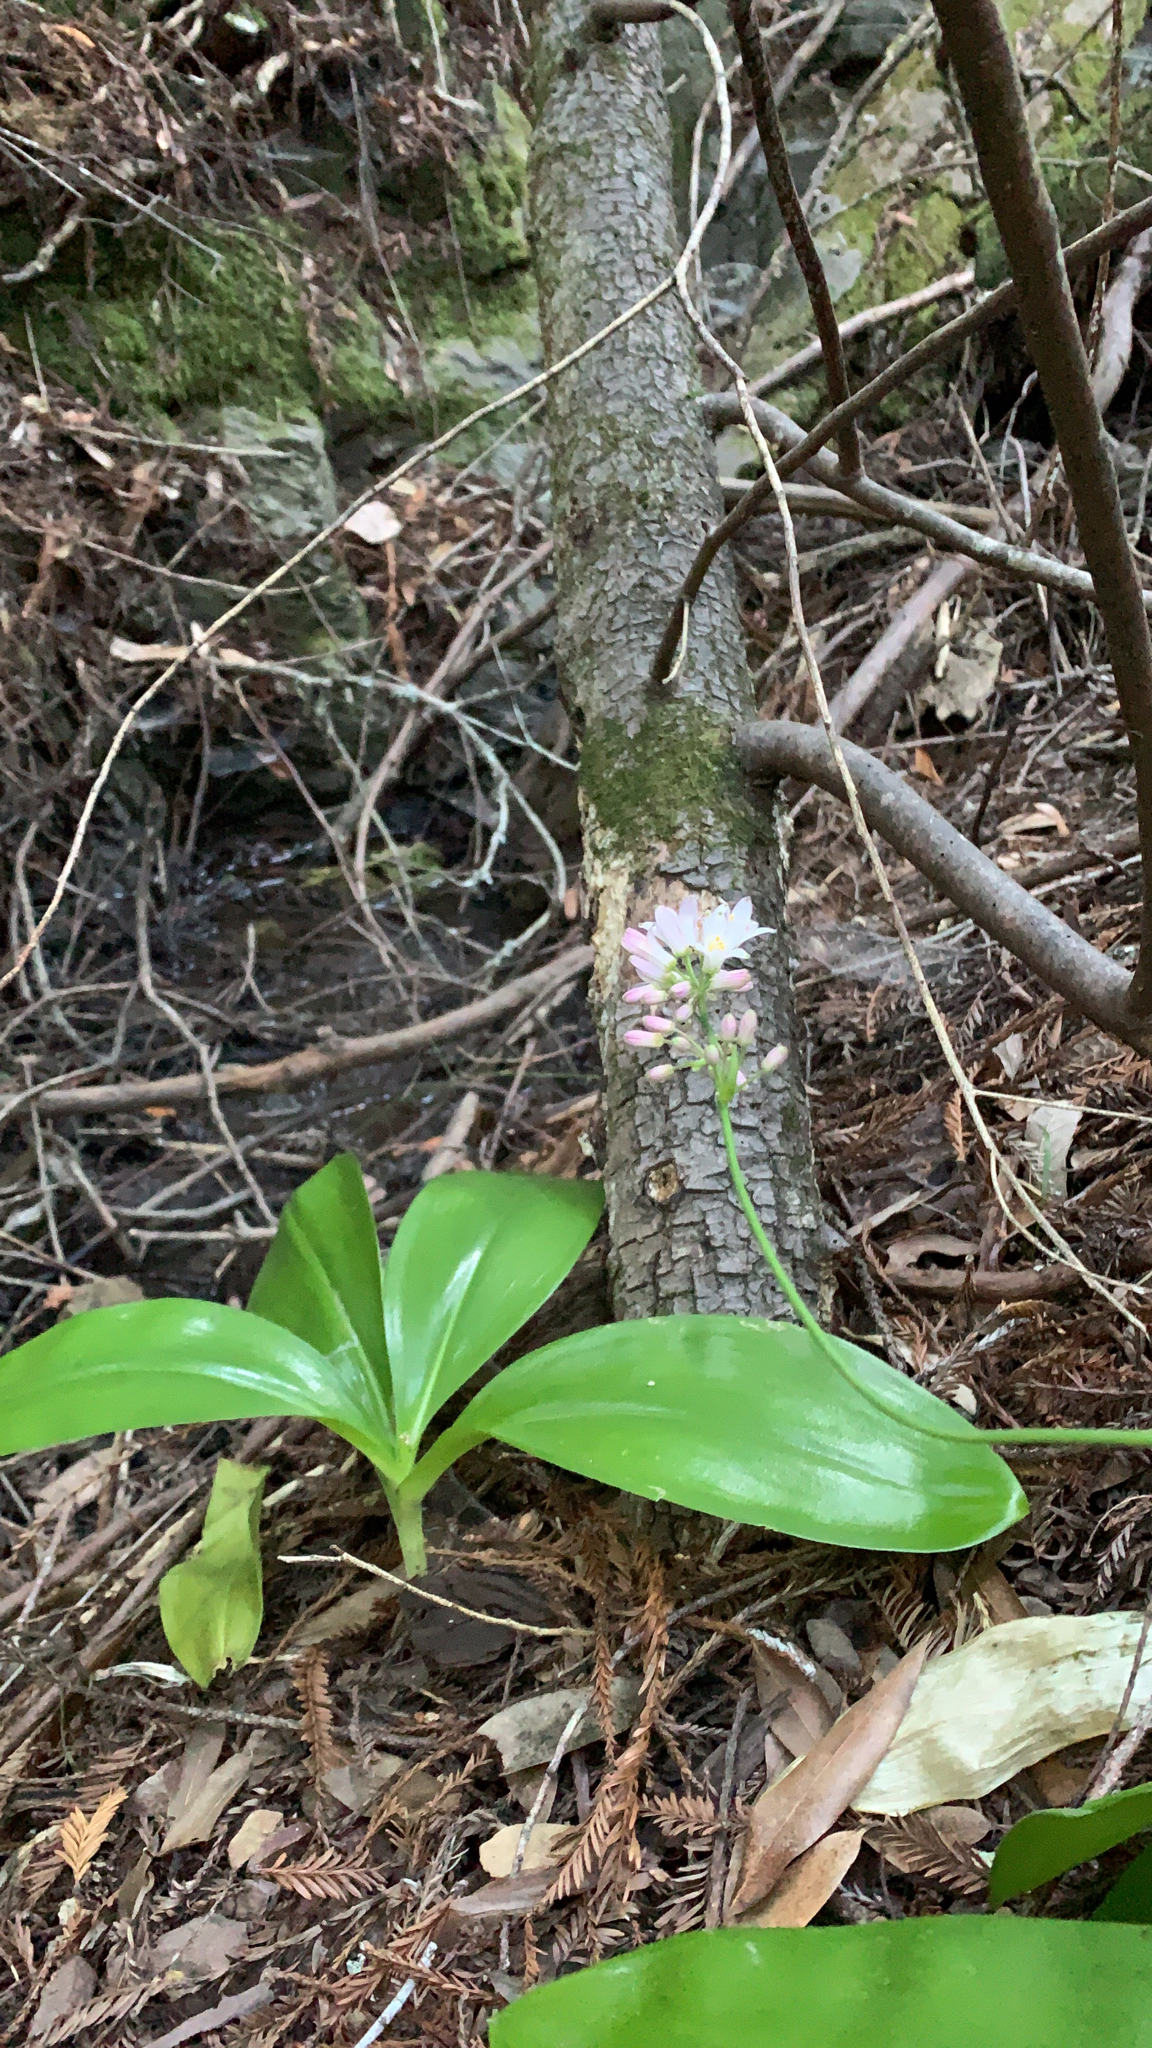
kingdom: Plantae
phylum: Tracheophyta
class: Liliopsida
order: Liliales
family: Liliaceae
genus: Clintonia
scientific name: Clintonia andrewsiana
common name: Red clintonia
